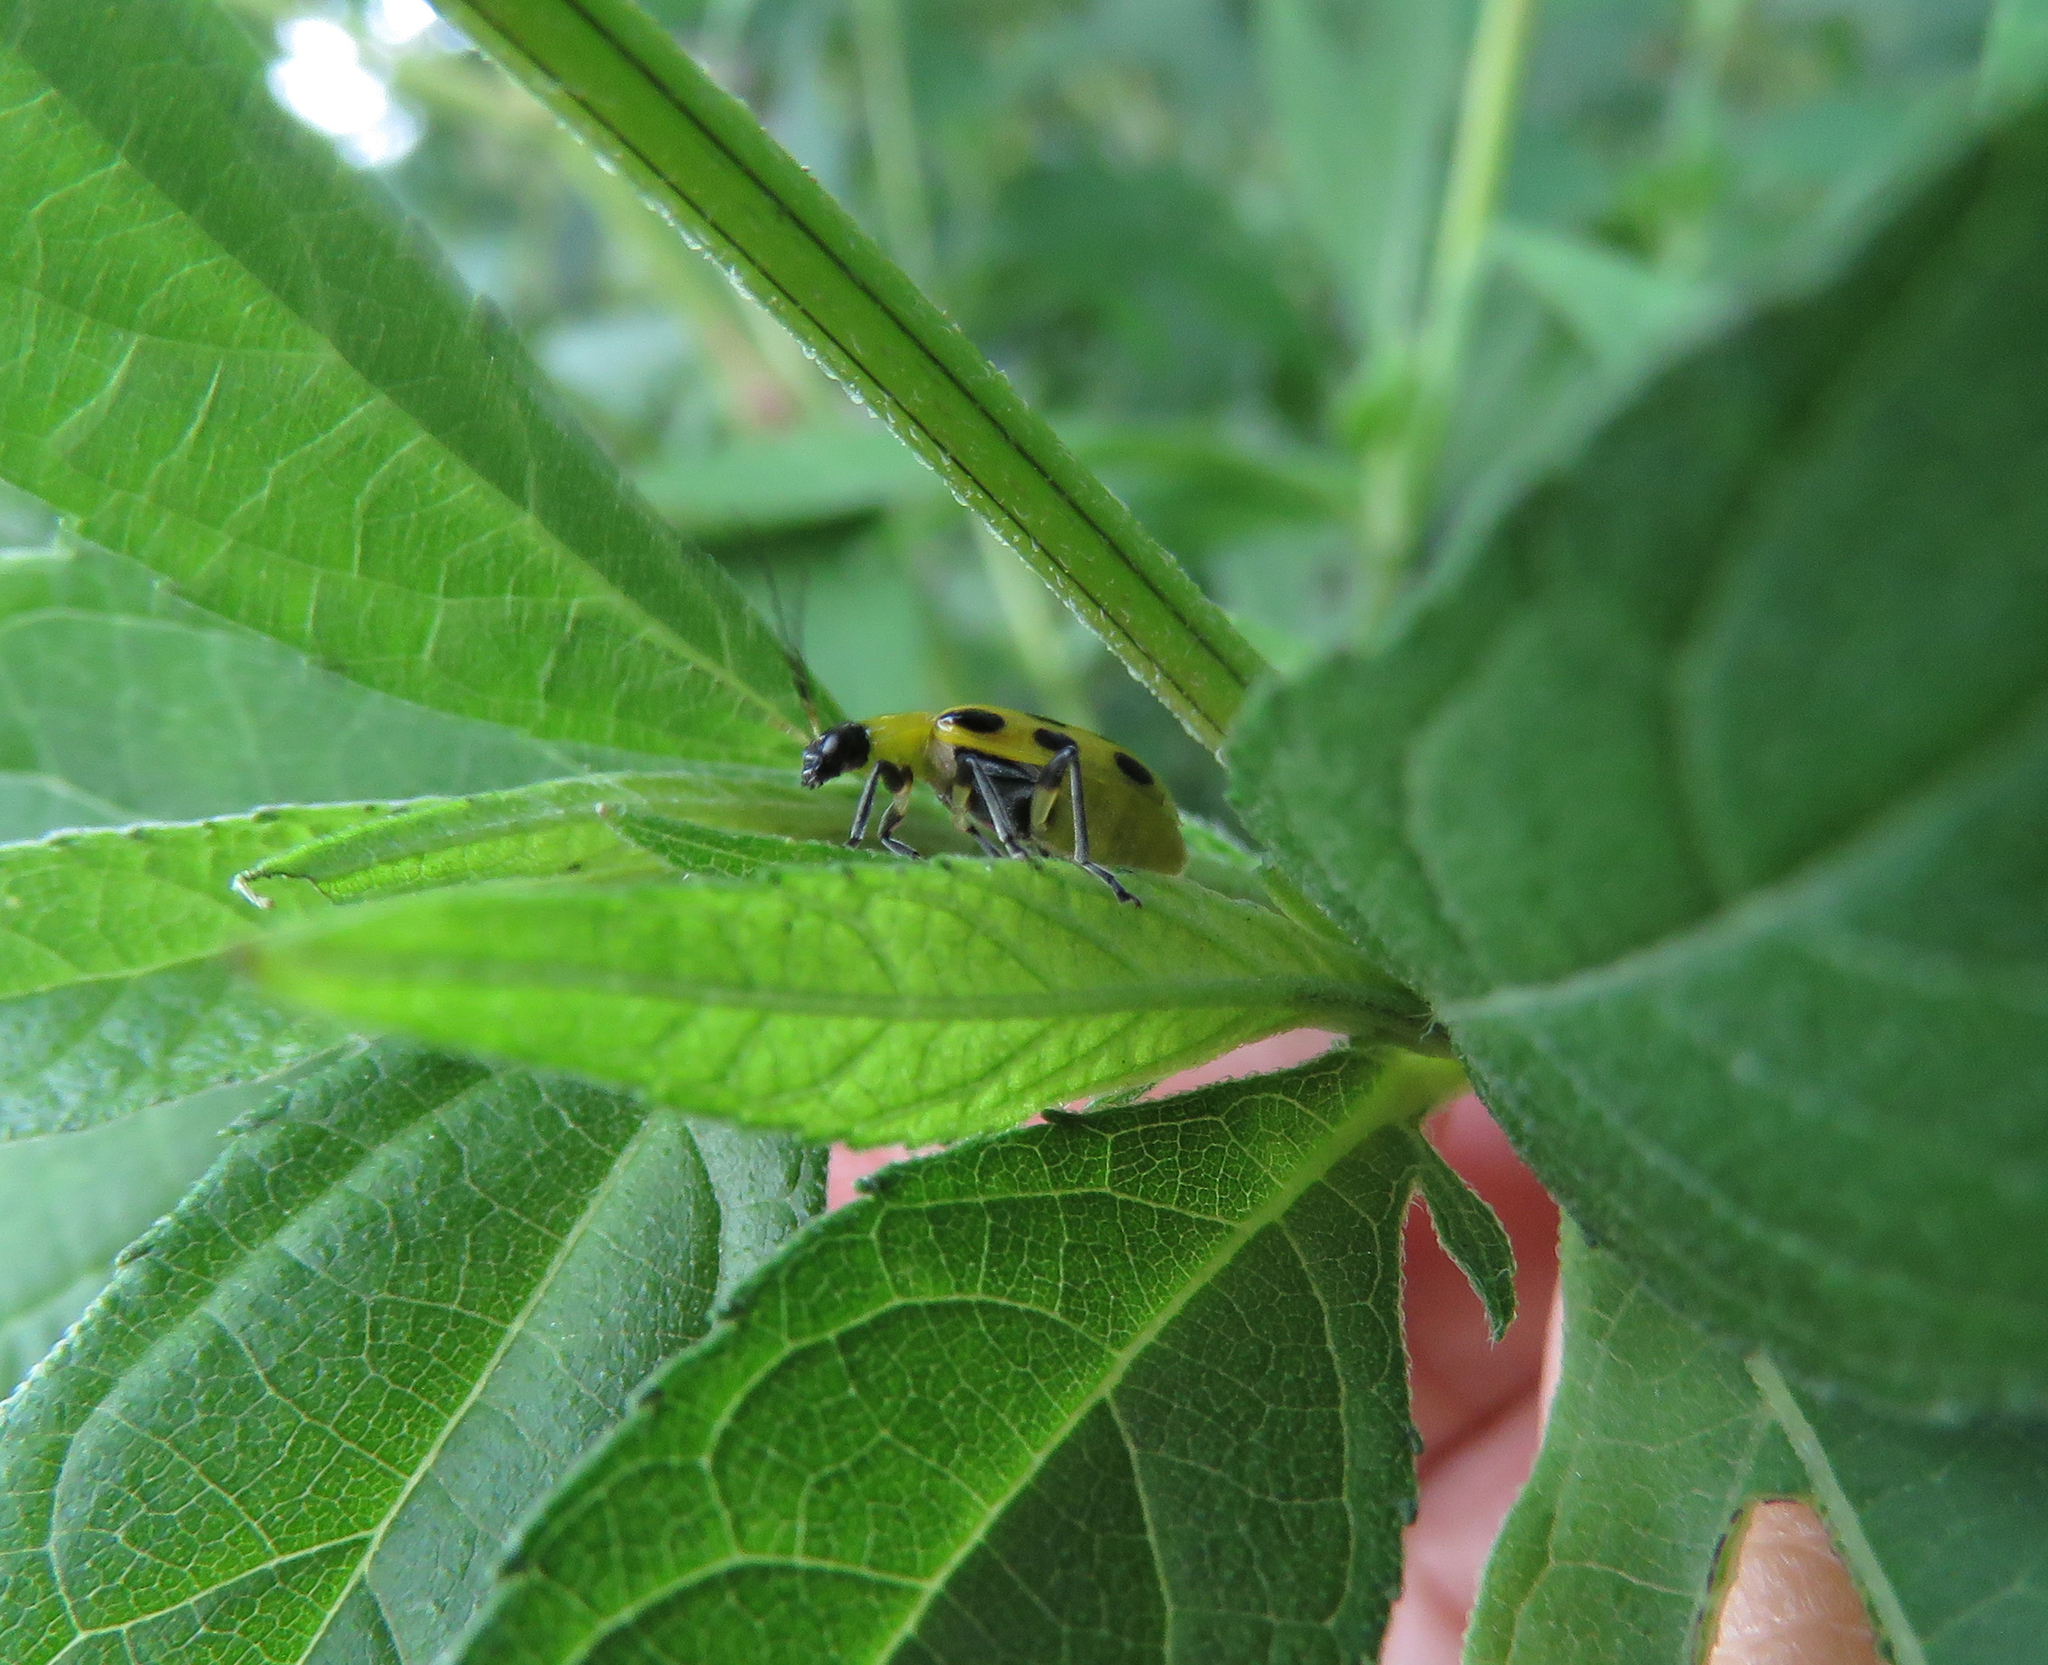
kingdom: Animalia
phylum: Arthropoda
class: Insecta
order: Coleoptera
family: Chrysomelidae
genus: Diabrotica
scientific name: Diabrotica undecimpunctata
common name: Spotted cucumber beetle
